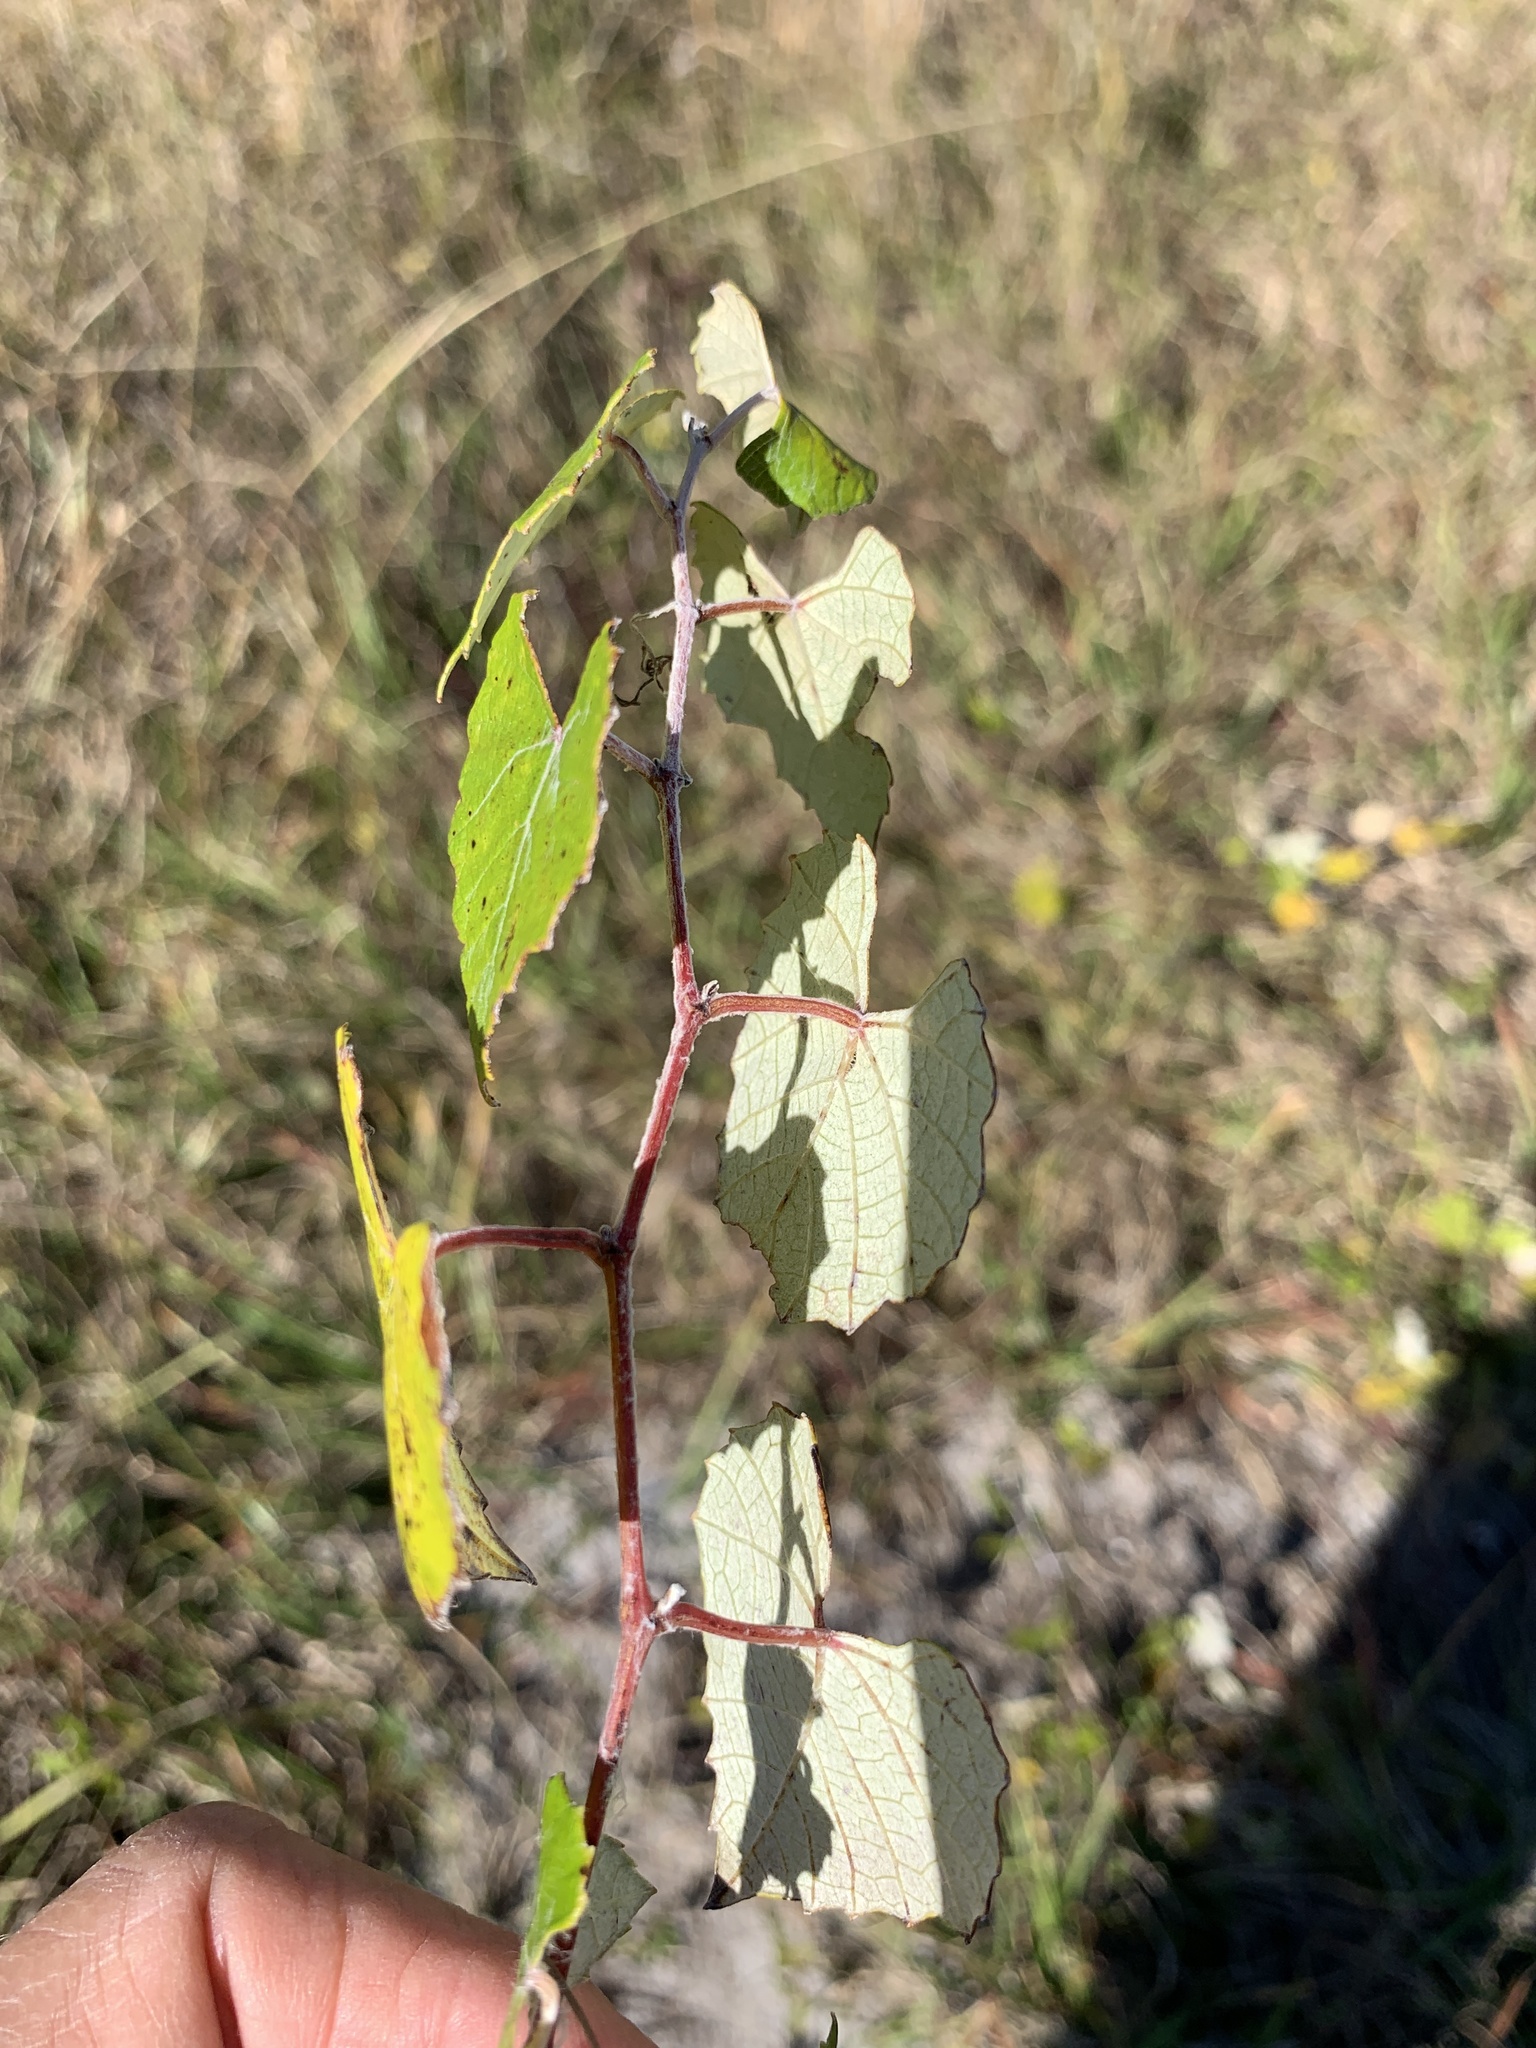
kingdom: Plantae
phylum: Tracheophyta
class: Magnoliopsida
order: Vitales
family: Vitaceae
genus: Vitis
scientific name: Vitis shuttleworthii
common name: Caloosa grape
